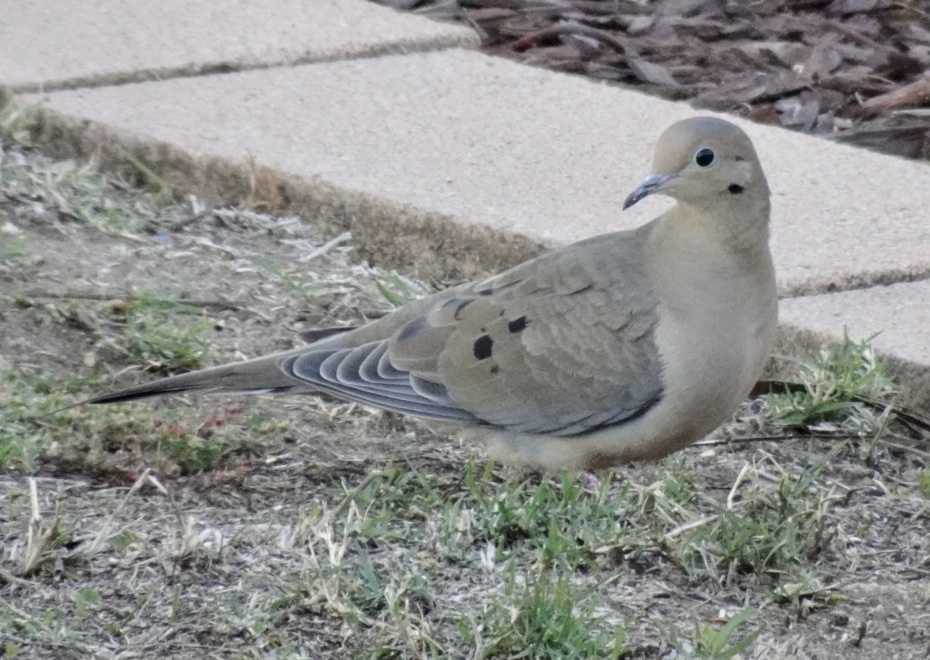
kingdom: Animalia
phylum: Chordata
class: Aves
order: Columbiformes
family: Columbidae
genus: Zenaida
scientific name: Zenaida macroura
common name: Mourning dove
